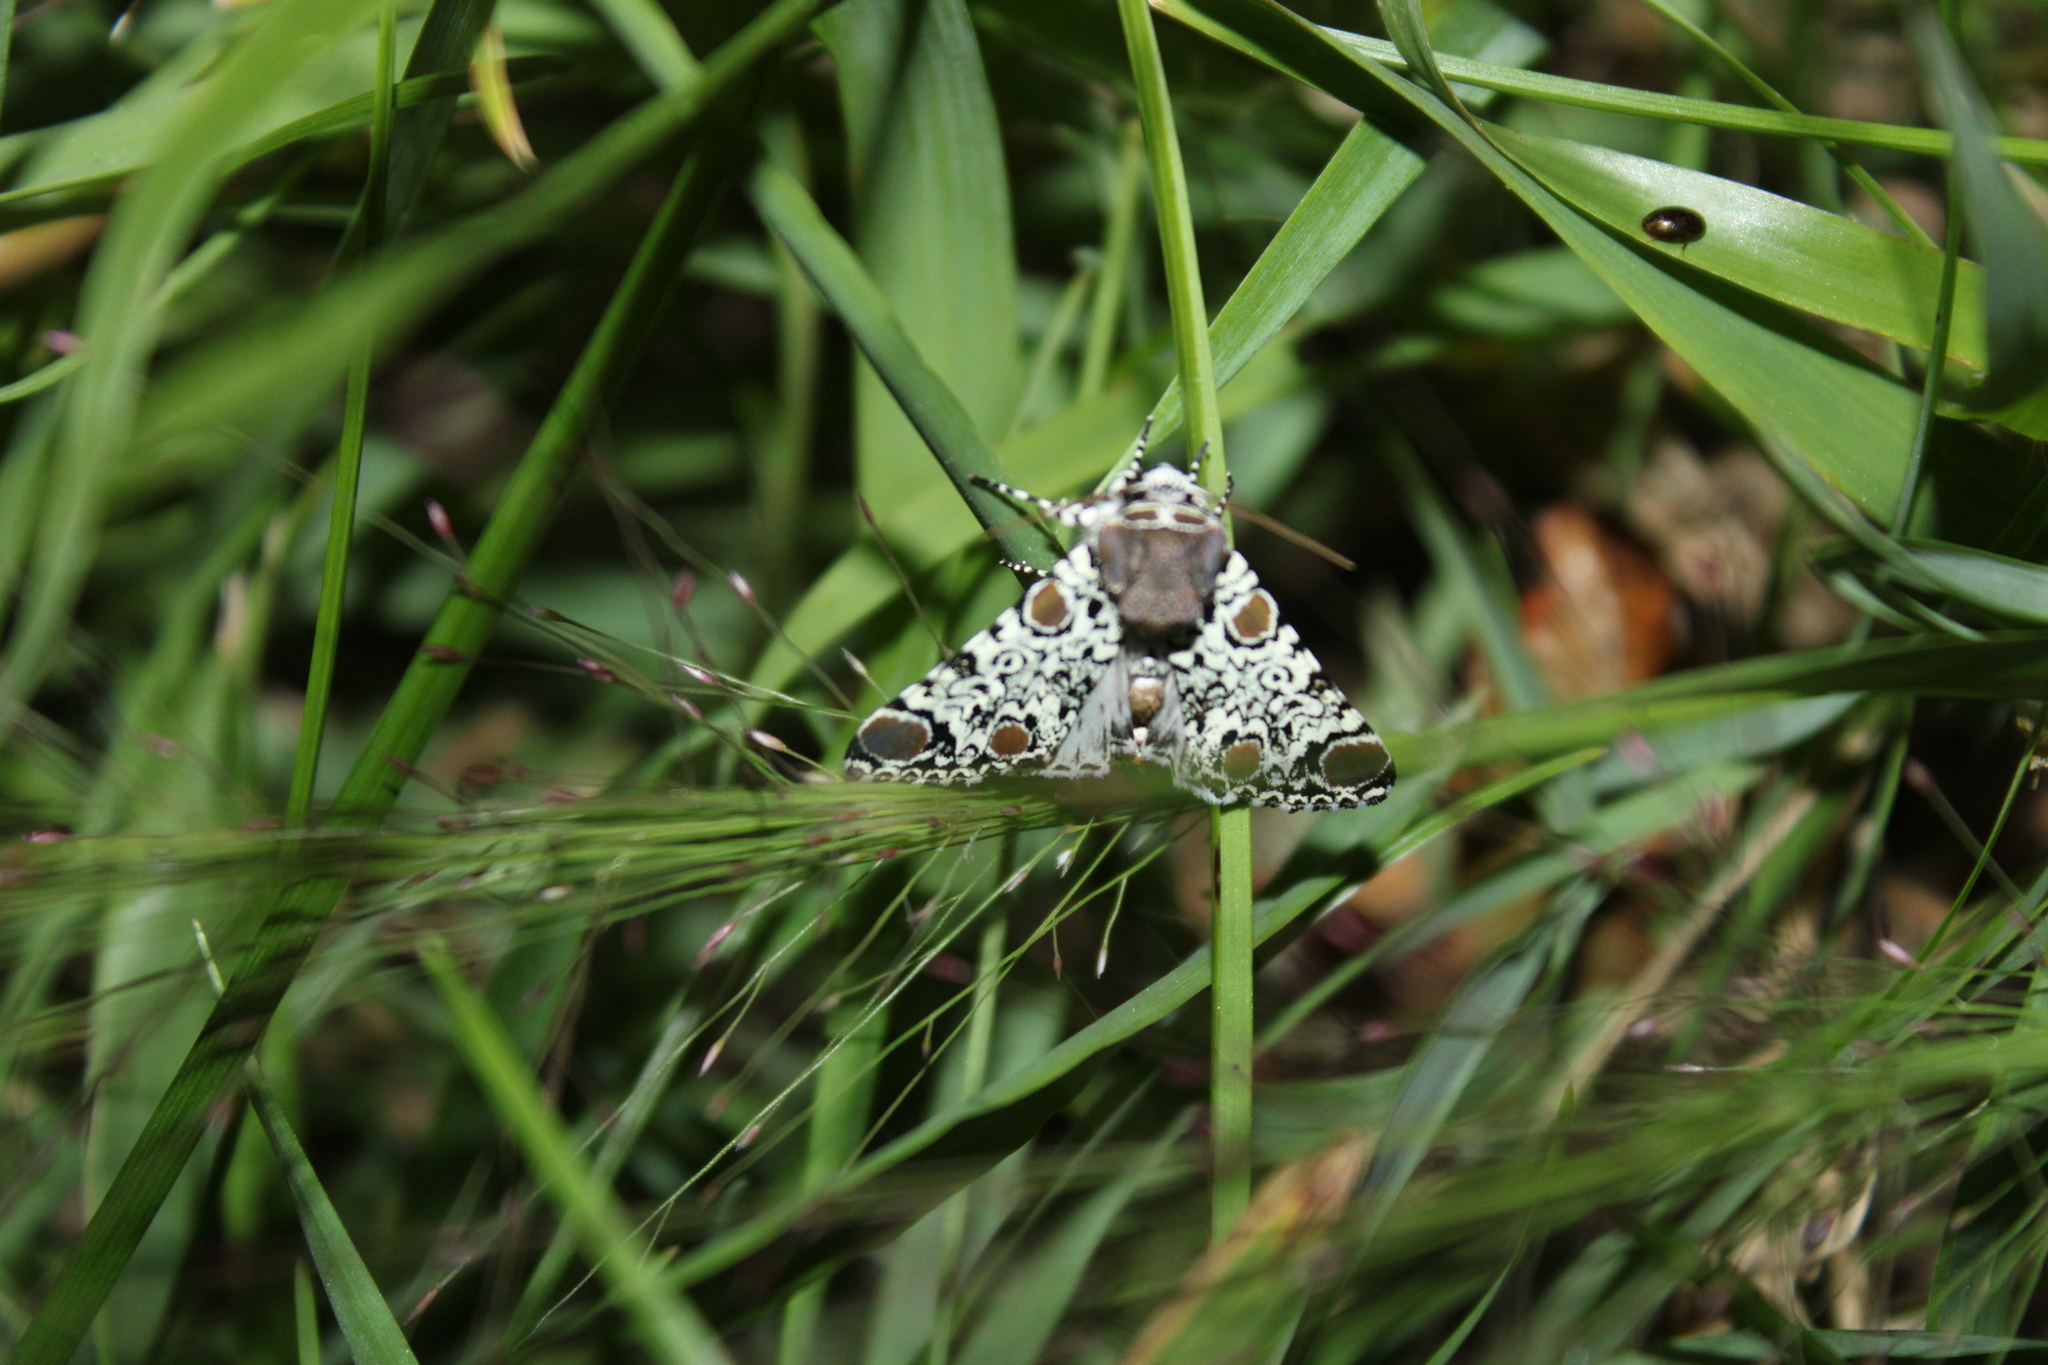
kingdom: Animalia
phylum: Arthropoda
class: Insecta
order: Lepidoptera
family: Noctuidae
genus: Harrisimemna
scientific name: Harrisimemna trisignata
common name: Harris threespot
